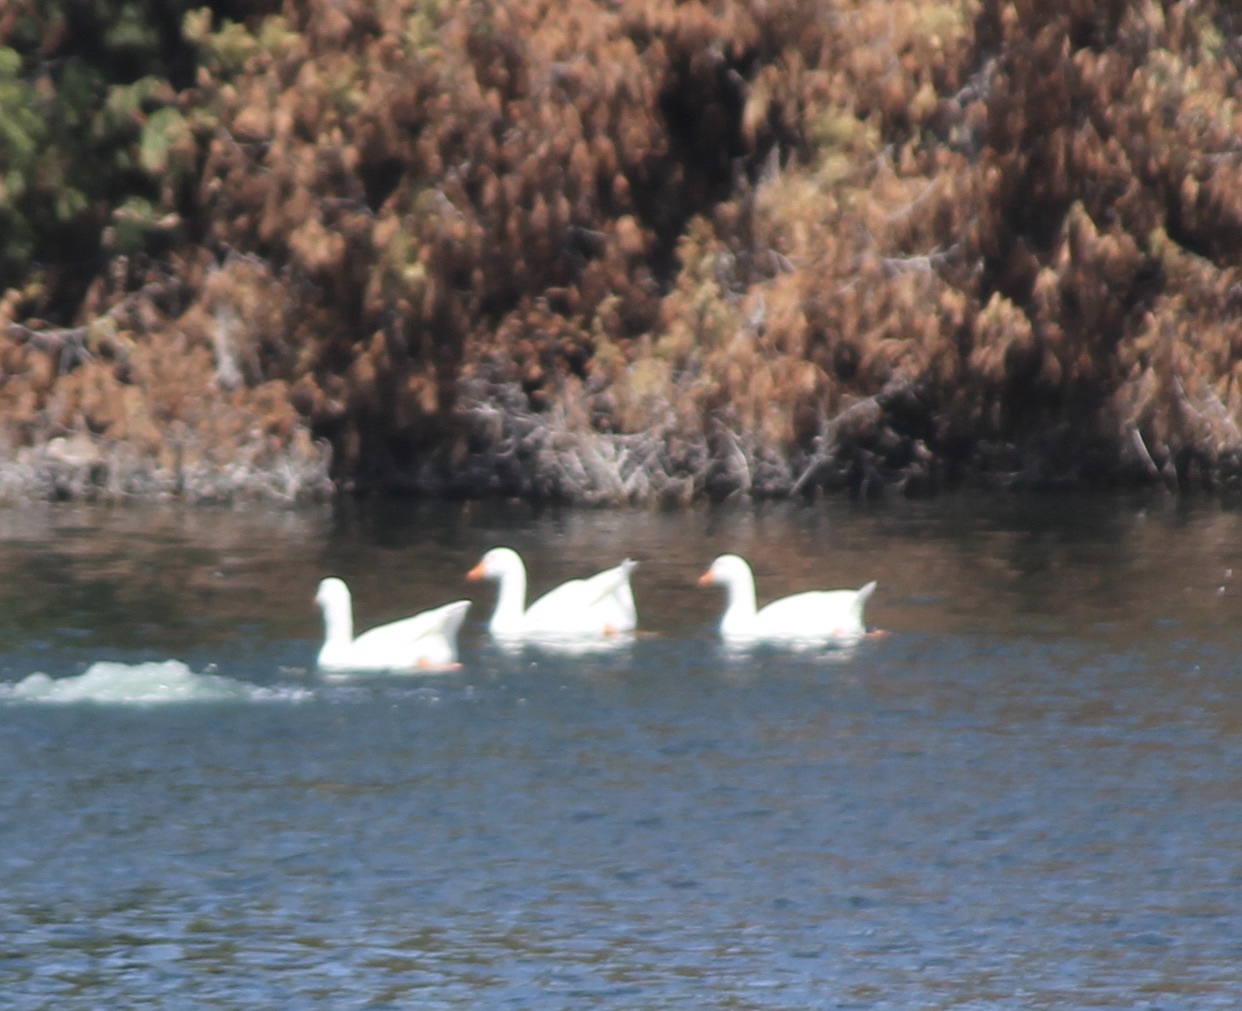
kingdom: Animalia
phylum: Chordata
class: Aves
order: Anseriformes
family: Anatidae
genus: Anser
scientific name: Anser anser
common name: Greylag goose
